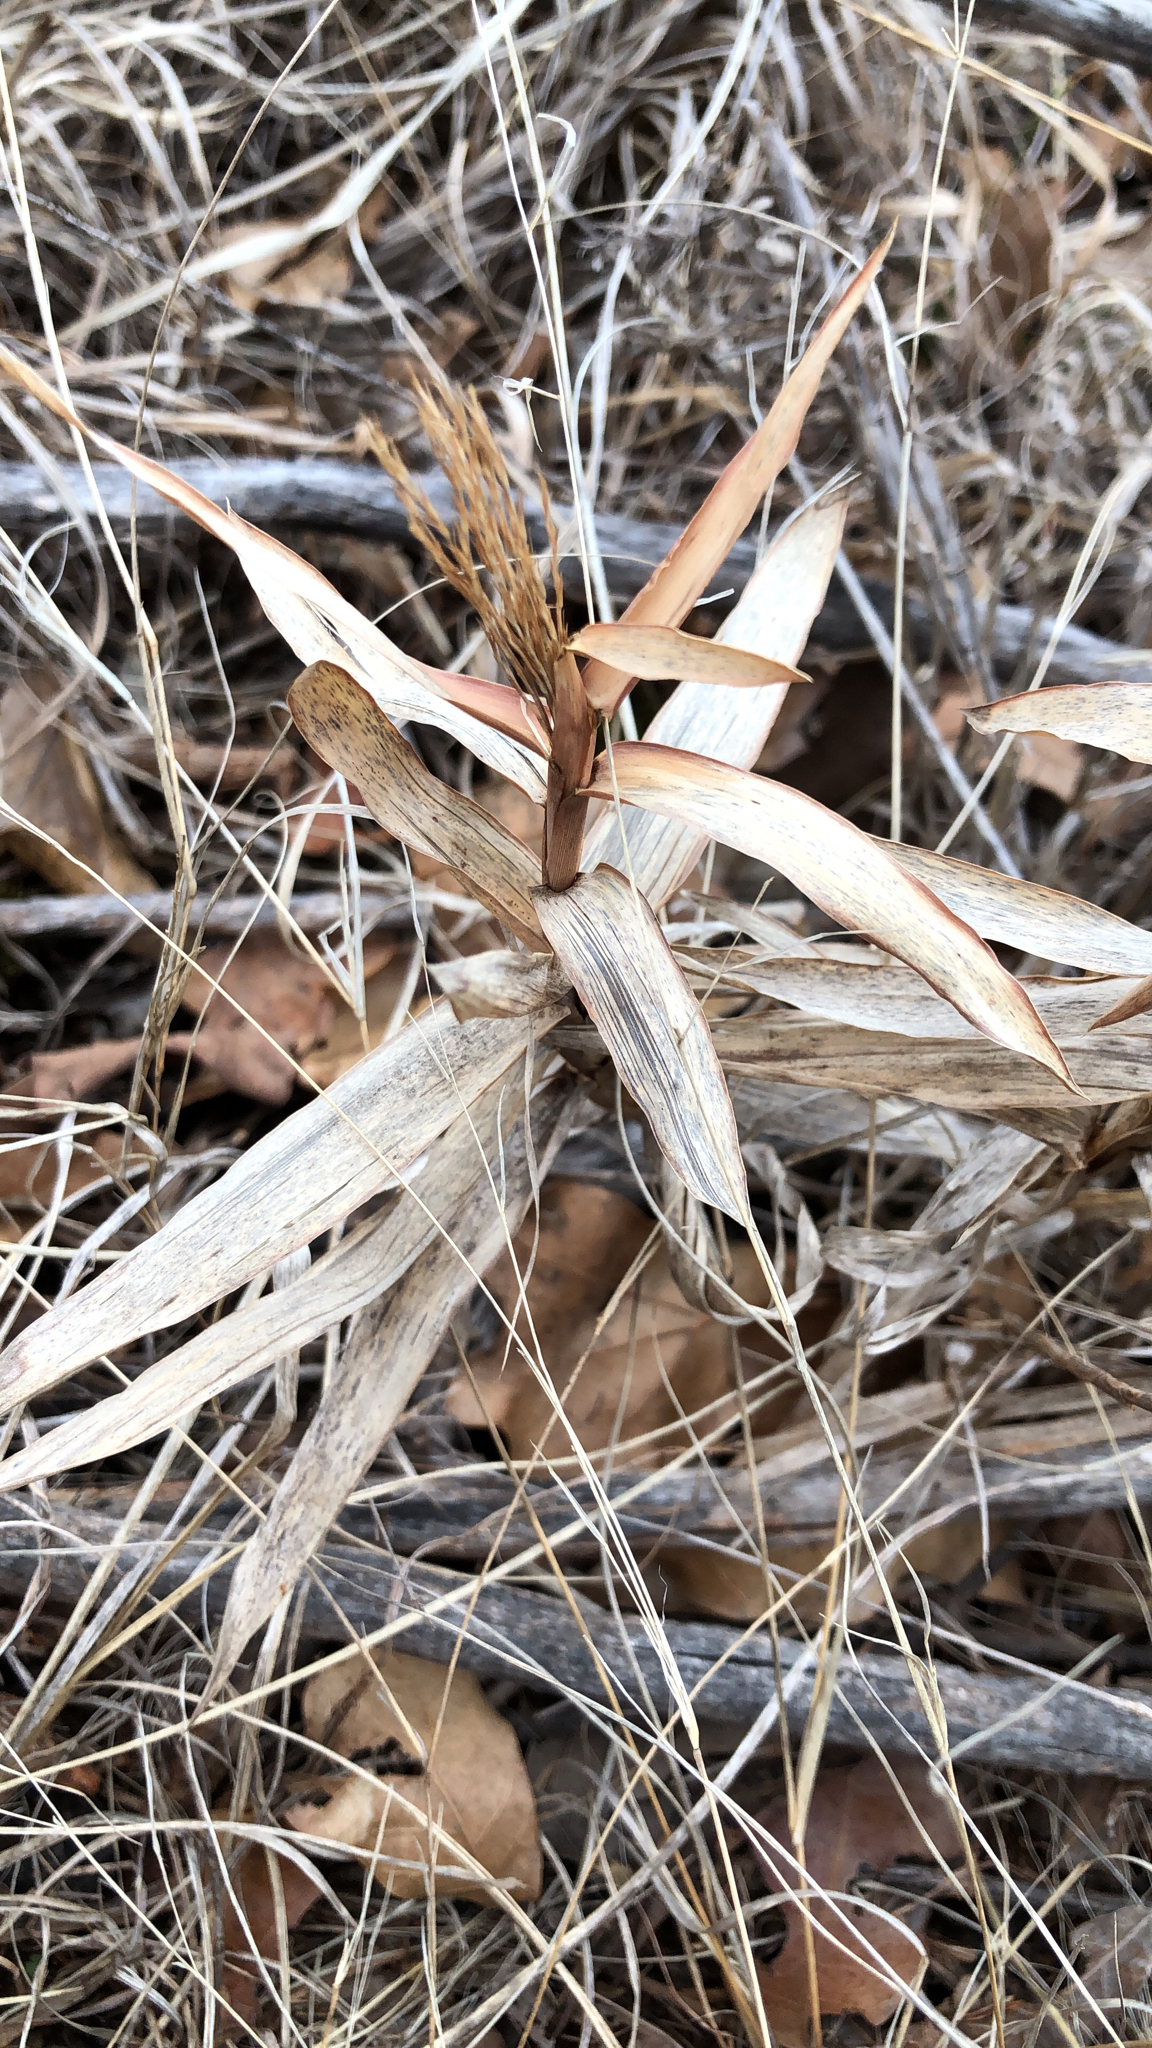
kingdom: Plantae
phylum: Tracheophyta
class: Liliopsida
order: Poales
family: Poaceae
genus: Gymnopogon
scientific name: Gymnopogon ambiguus
